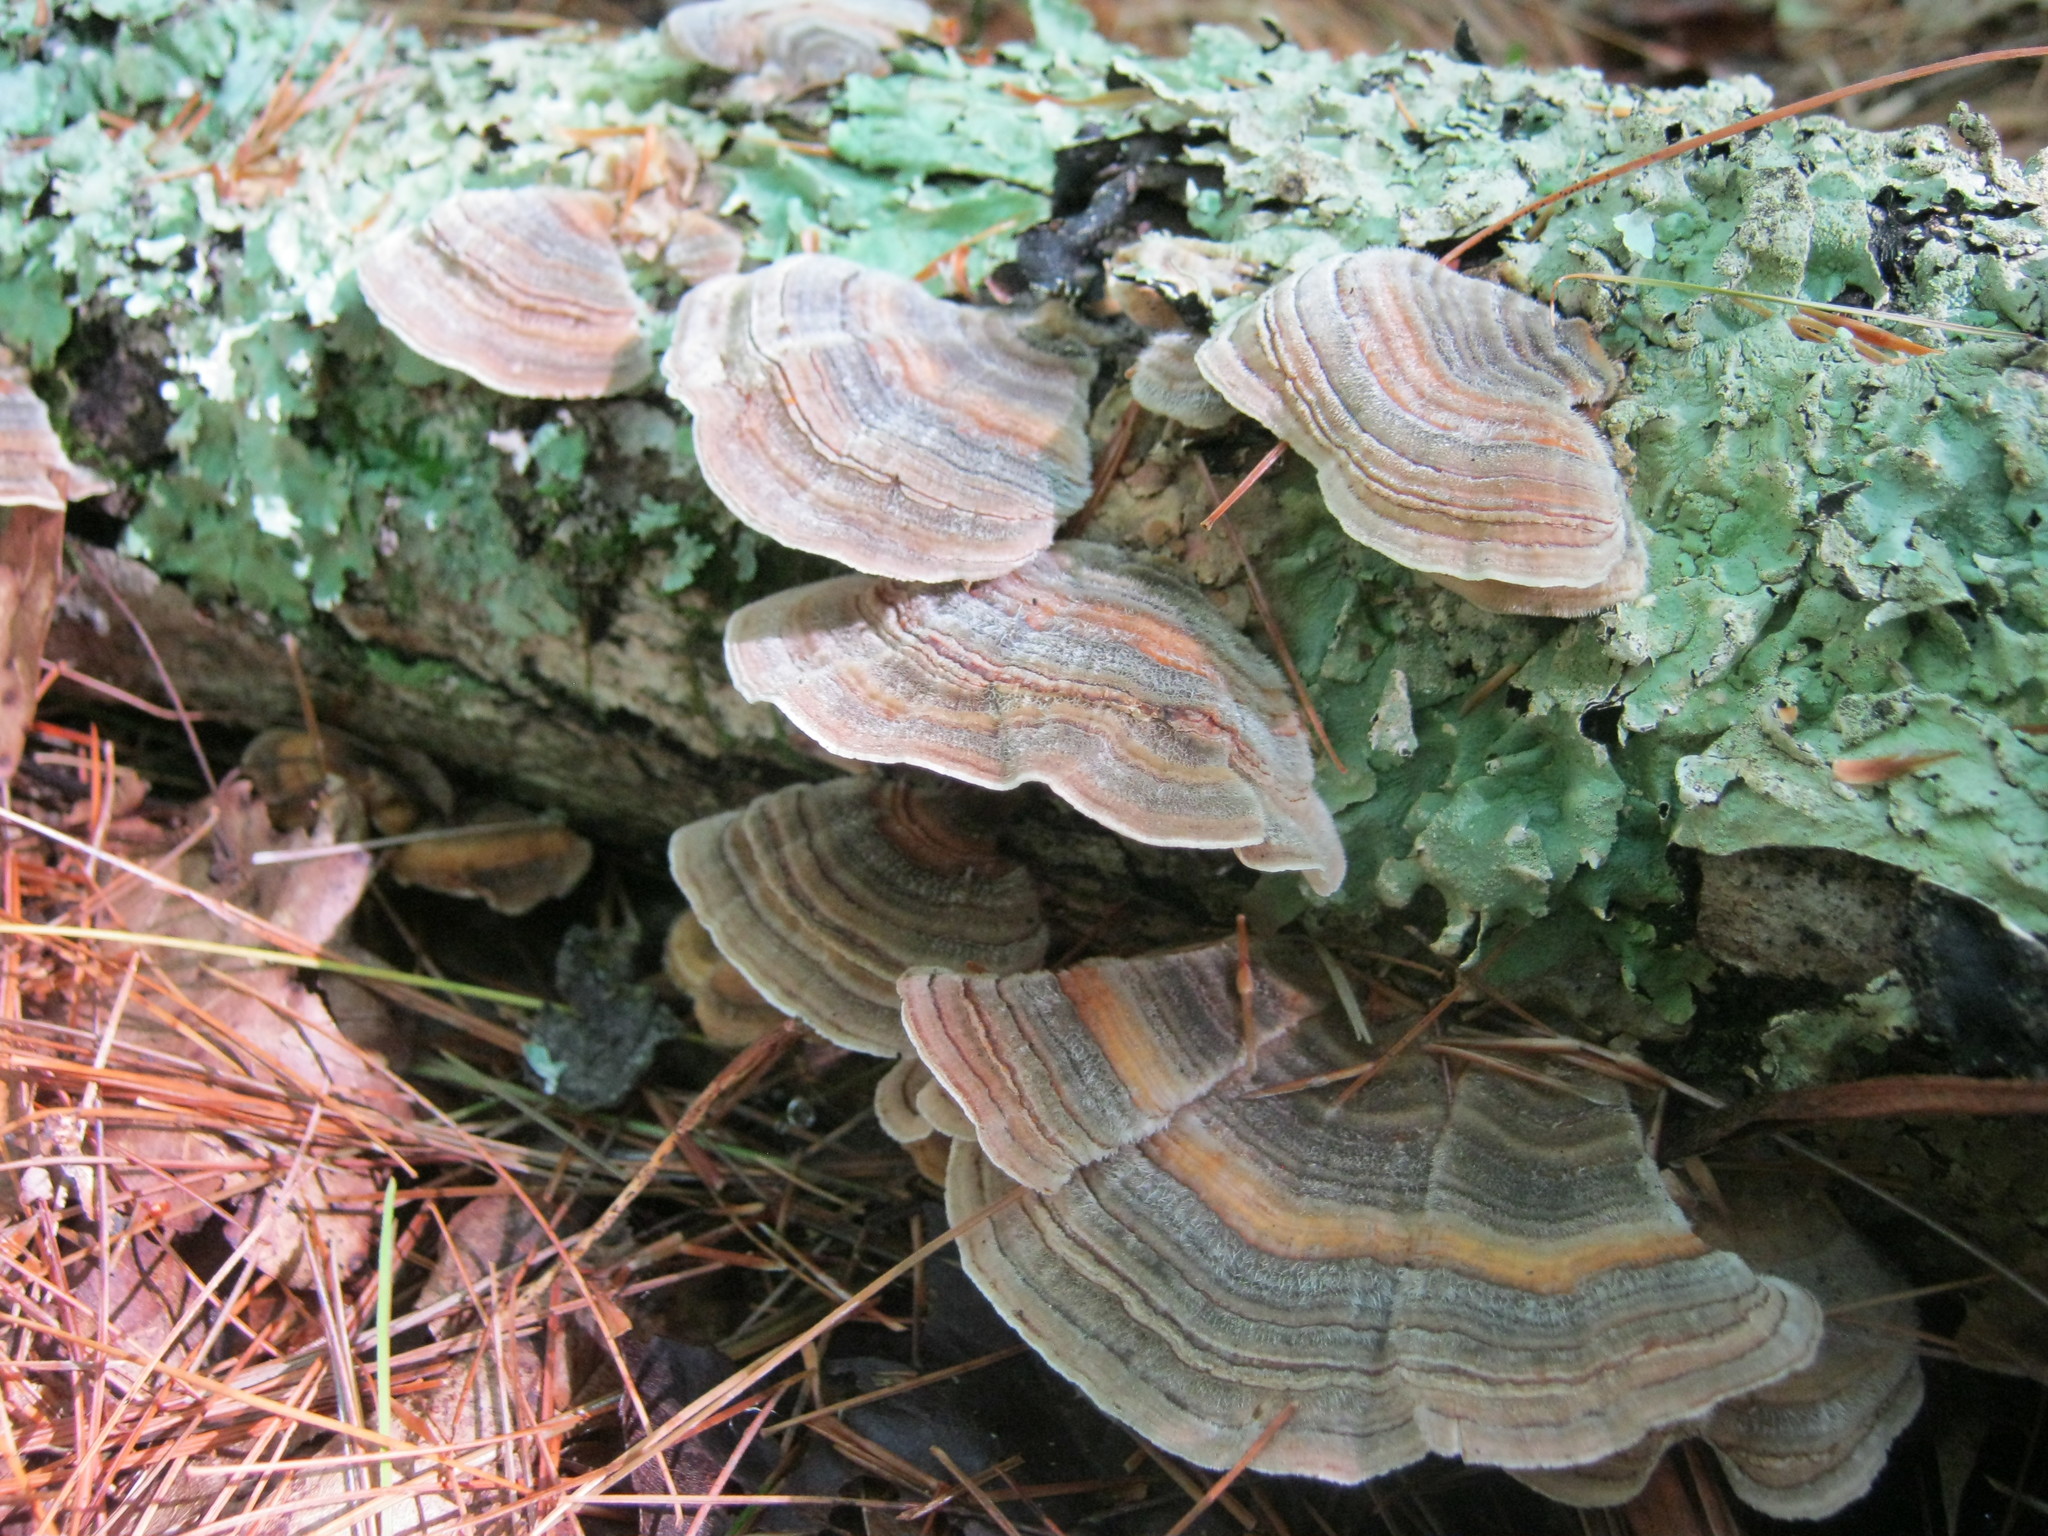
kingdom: Fungi
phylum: Basidiomycota
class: Agaricomycetes
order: Polyporales
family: Polyporaceae
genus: Trametes
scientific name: Trametes versicolor
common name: Turkeytail
